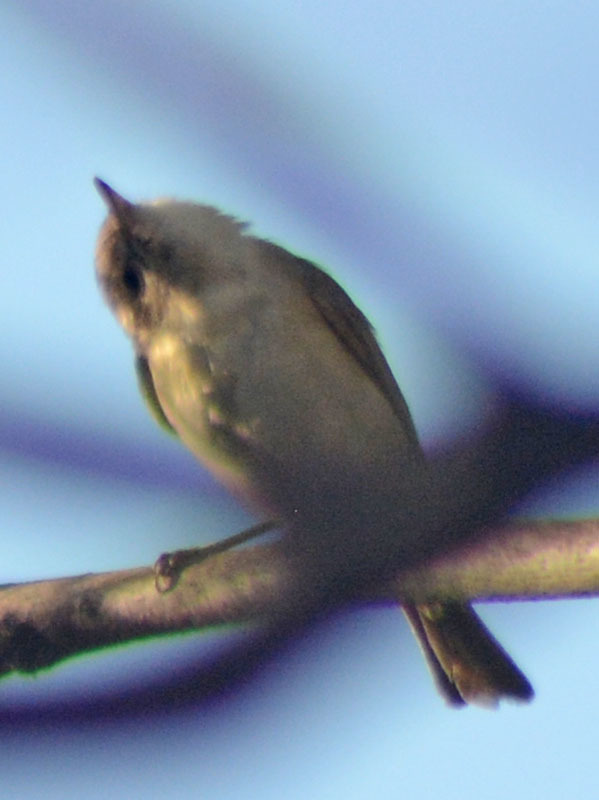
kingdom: Animalia
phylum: Chordata
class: Aves
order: Passeriformes
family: Vireonidae
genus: Vireo
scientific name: Vireo gilvus
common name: Warbling vireo
